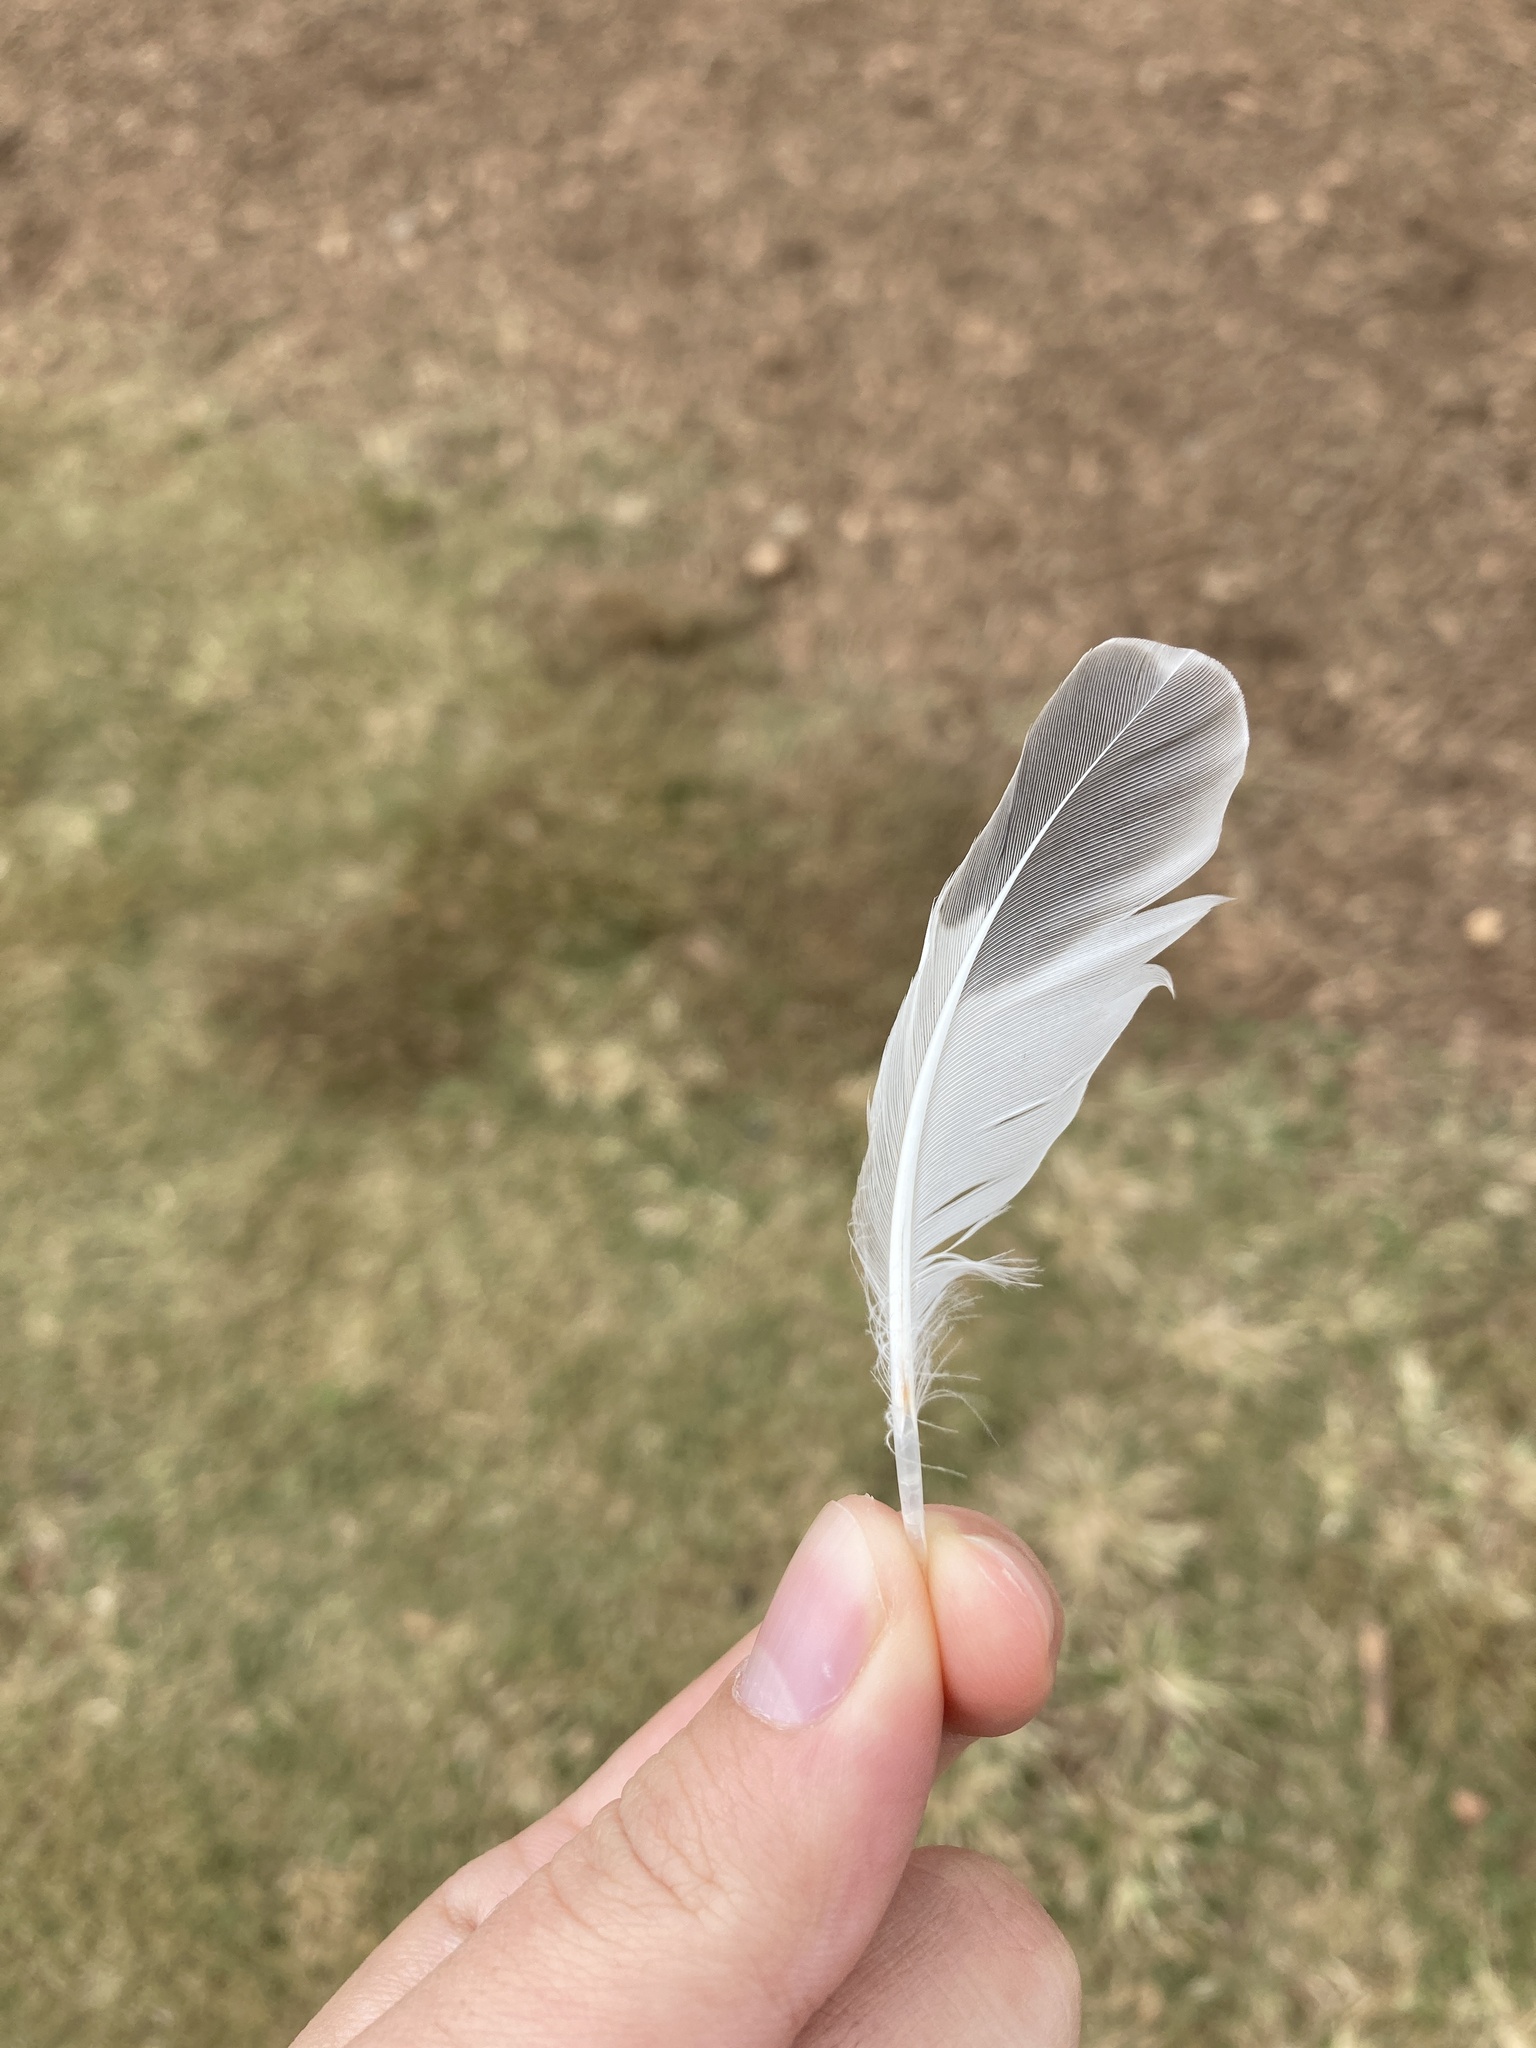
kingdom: Animalia
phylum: Chordata
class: Aves
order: Charadriiformes
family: Charadriidae
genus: Charadrius
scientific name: Charadrius vociferus
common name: Killdeer
